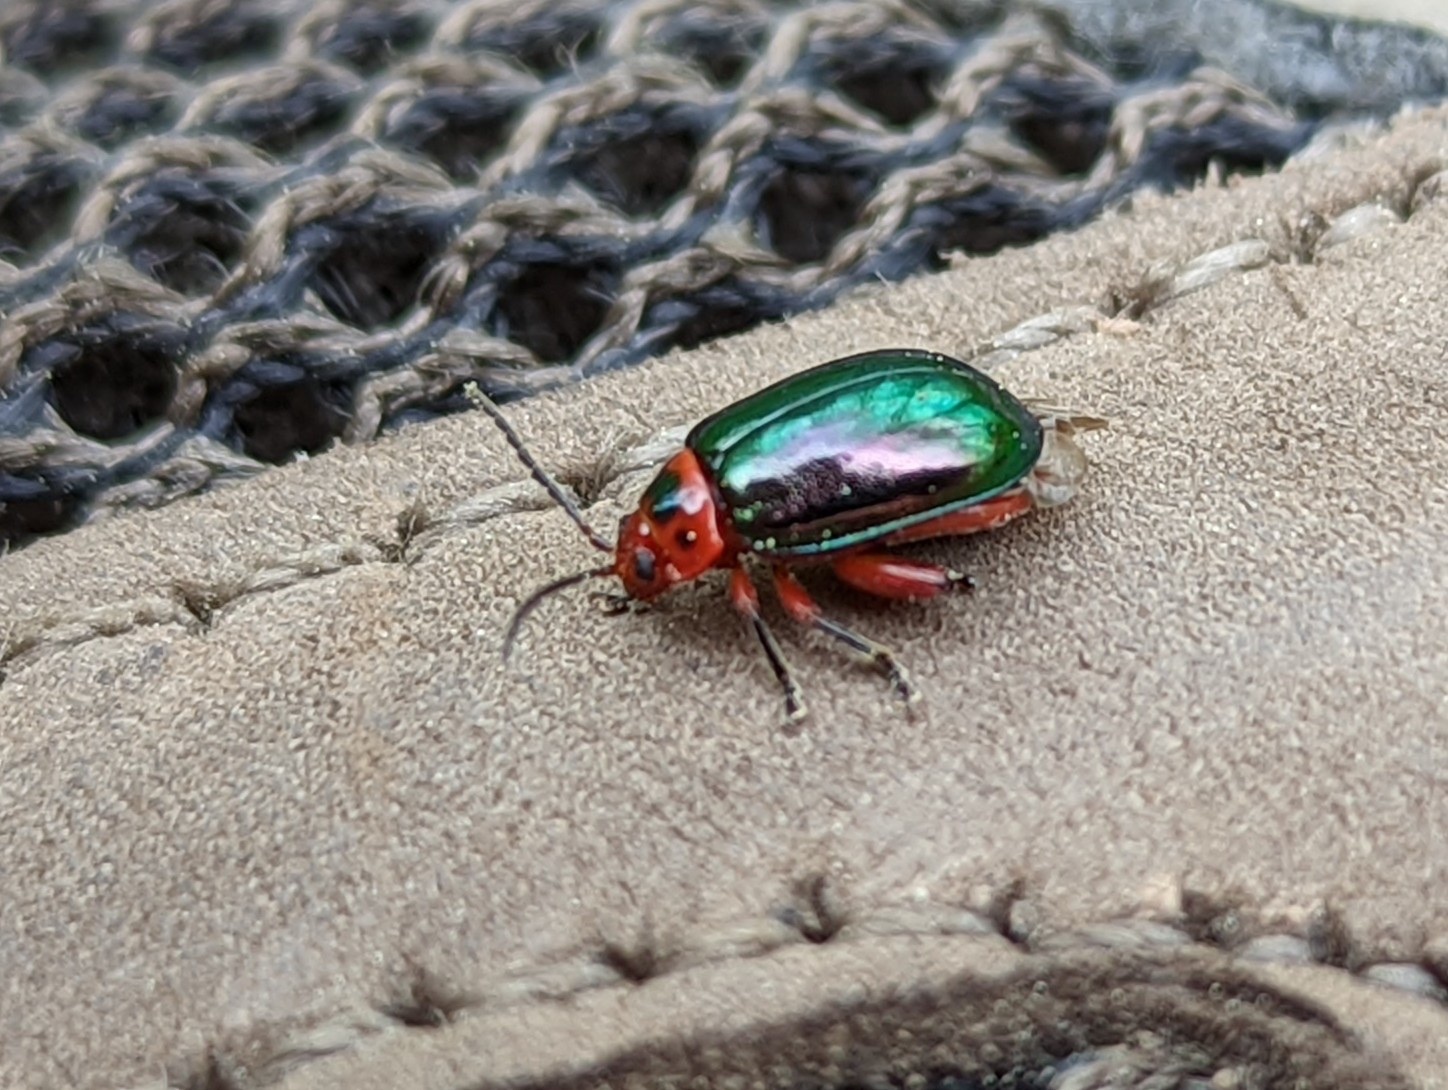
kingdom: Animalia
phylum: Arthropoda
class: Insecta
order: Coleoptera
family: Chrysomelidae
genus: Kuschelina
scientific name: Kuschelina gibbitarsa
